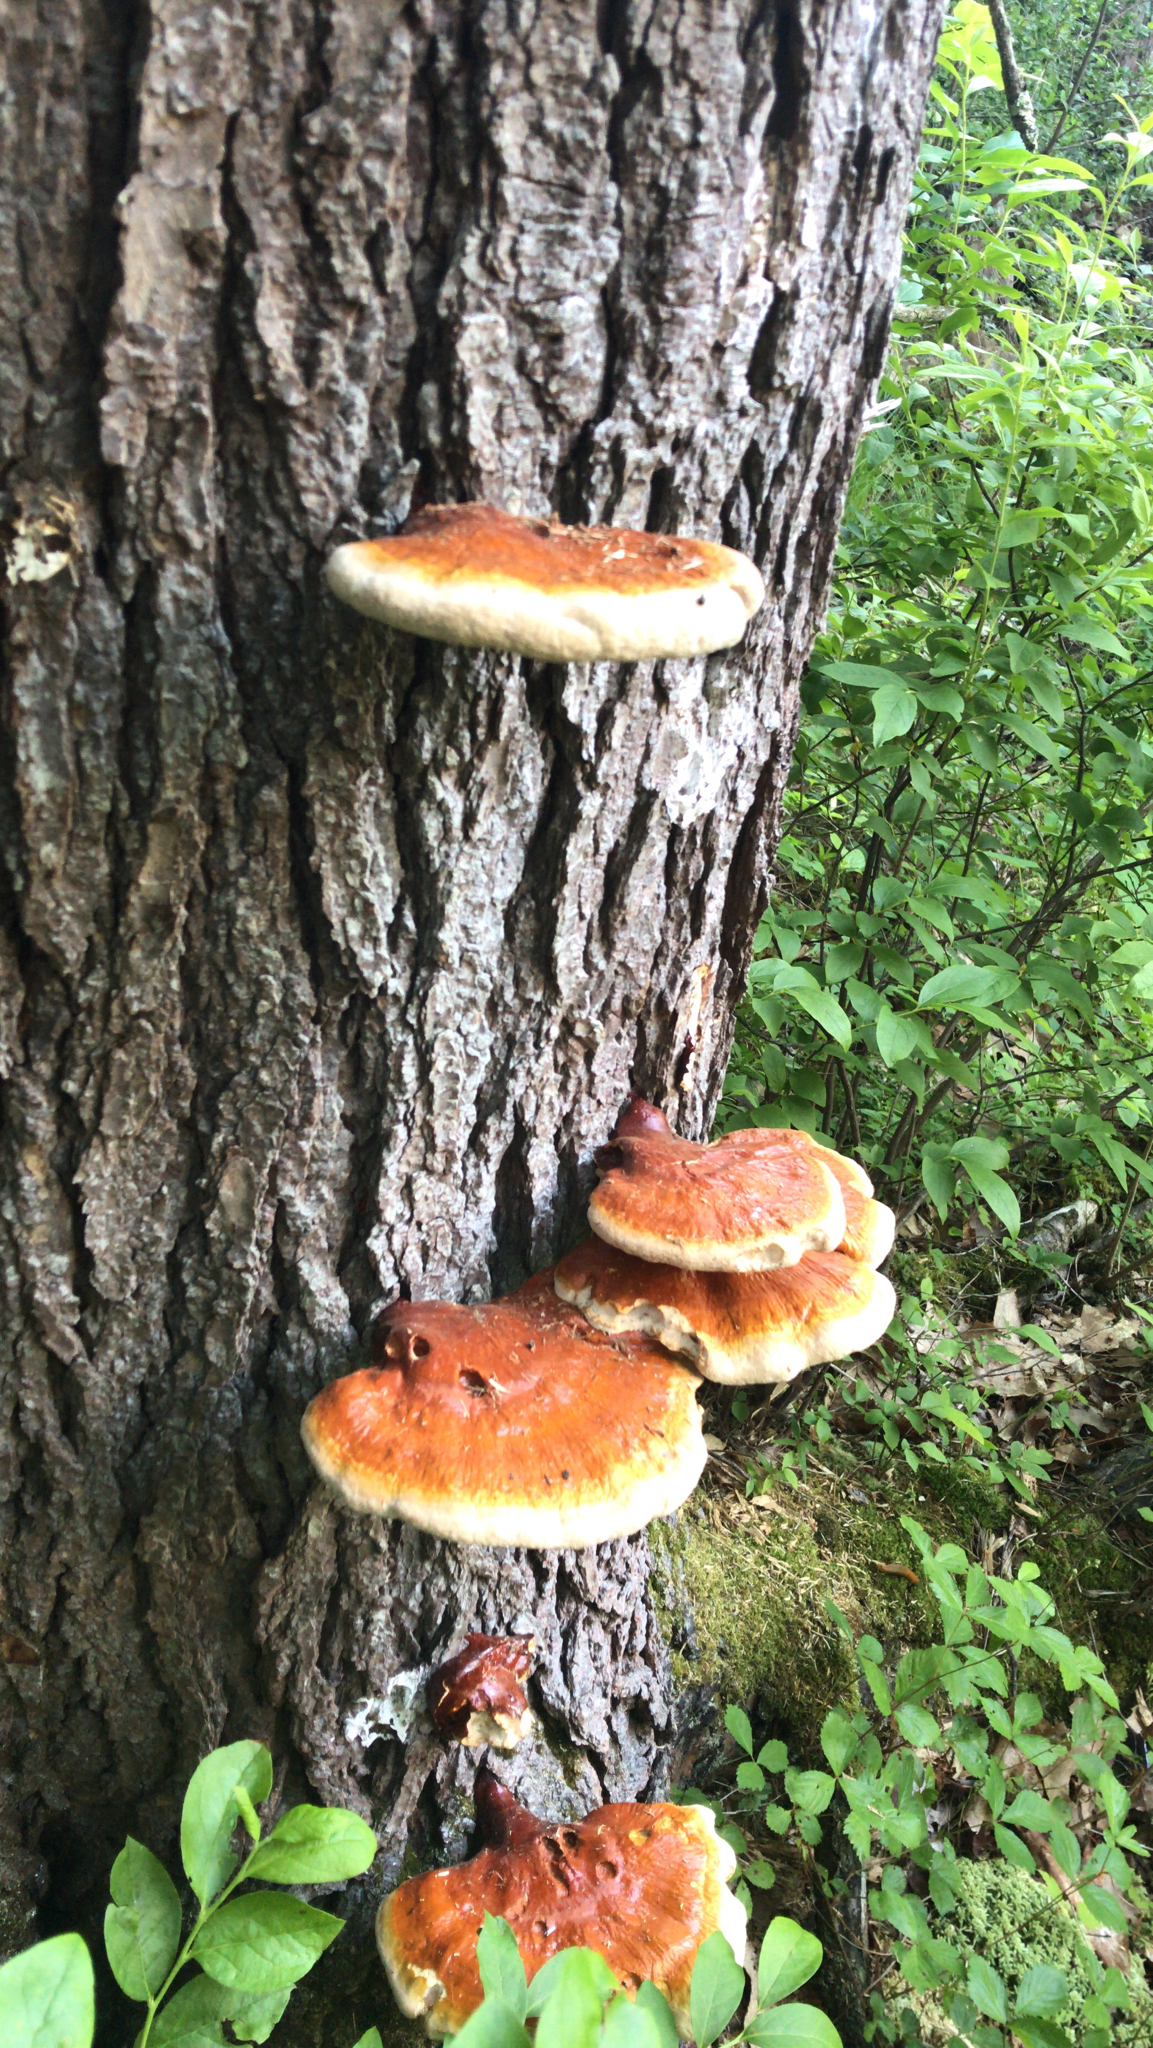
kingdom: Fungi
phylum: Basidiomycota
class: Agaricomycetes
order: Polyporales
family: Polyporaceae
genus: Ganoderma
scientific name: Ganoderma tsugae
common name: Hemlock varnish shelf
